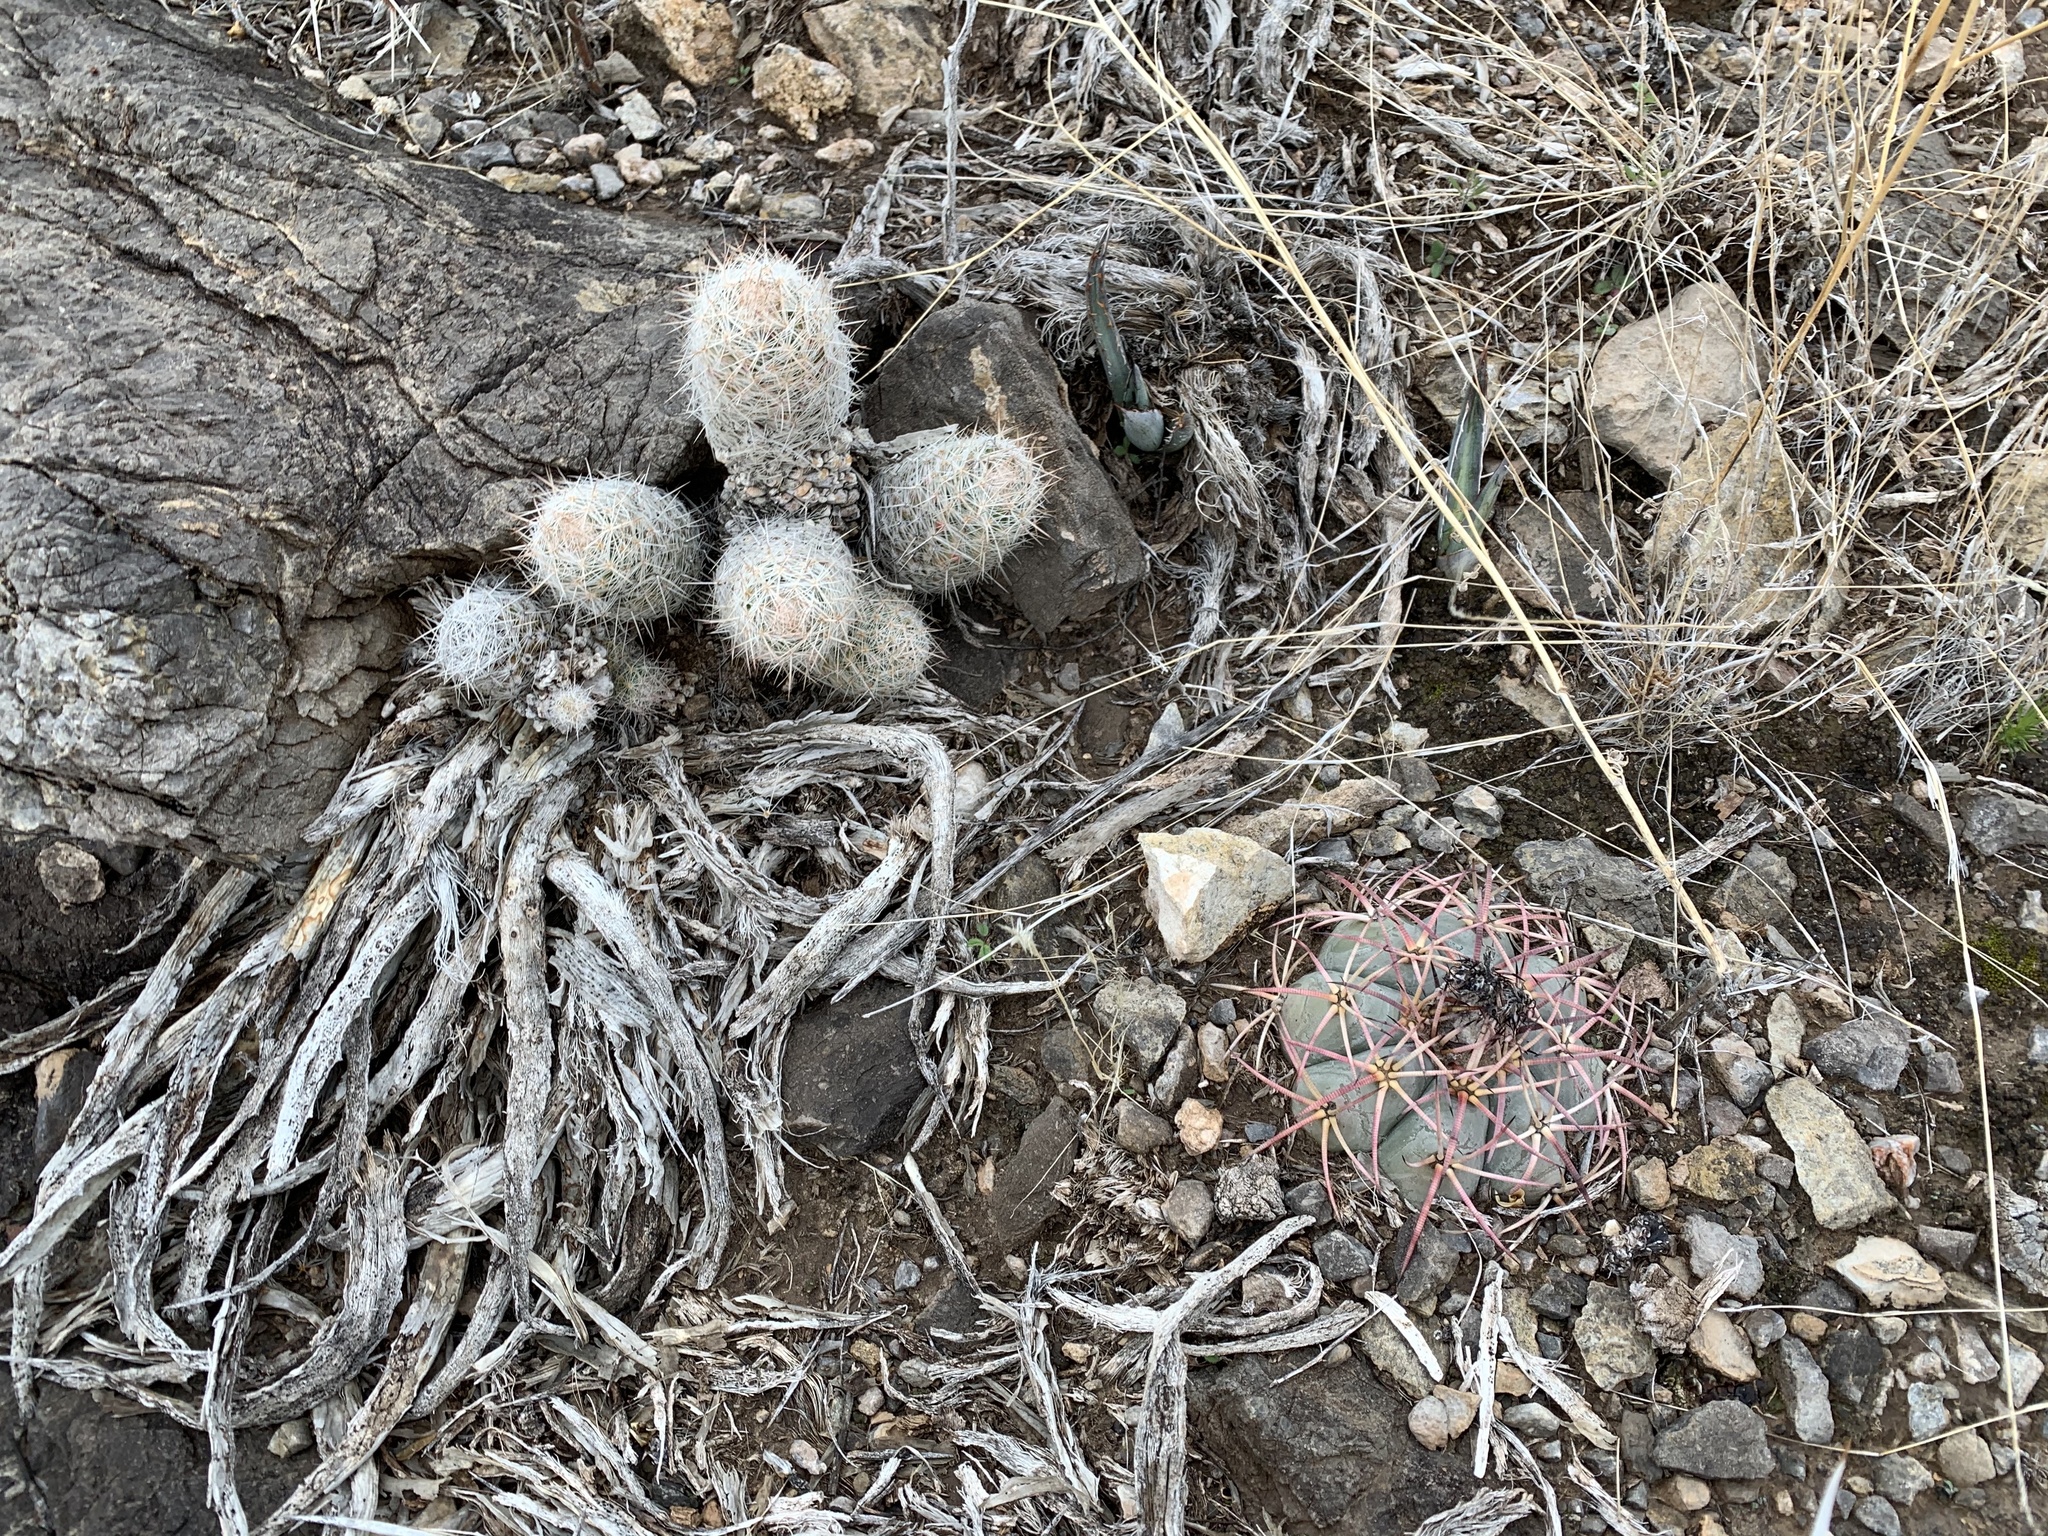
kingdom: Plantae
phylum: Tracheophyta
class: Magnoliopsida
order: Caryophyllales
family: Cactaceae
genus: Pelecyphora
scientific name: Pelecyphora tuberculosa
